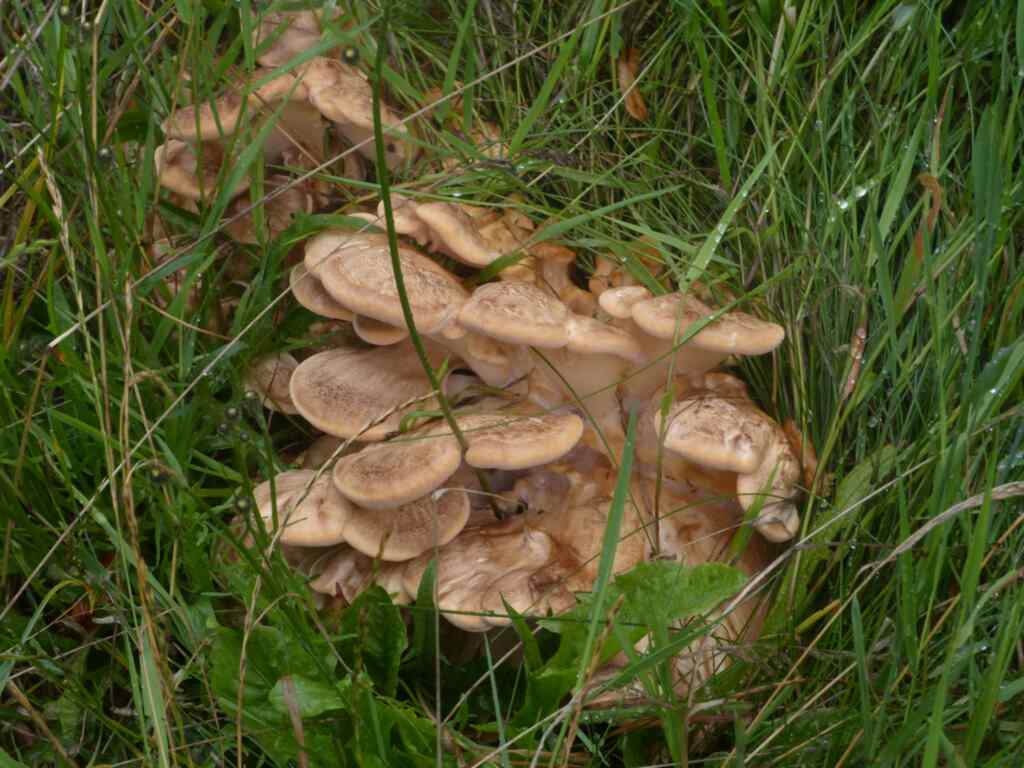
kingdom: Fungi
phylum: Basidiomycota
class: Agaricomycetes
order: Polyporales
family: Meripilaceae
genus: Meripilus
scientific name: Meripilus giganteus
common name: Giant polypore
